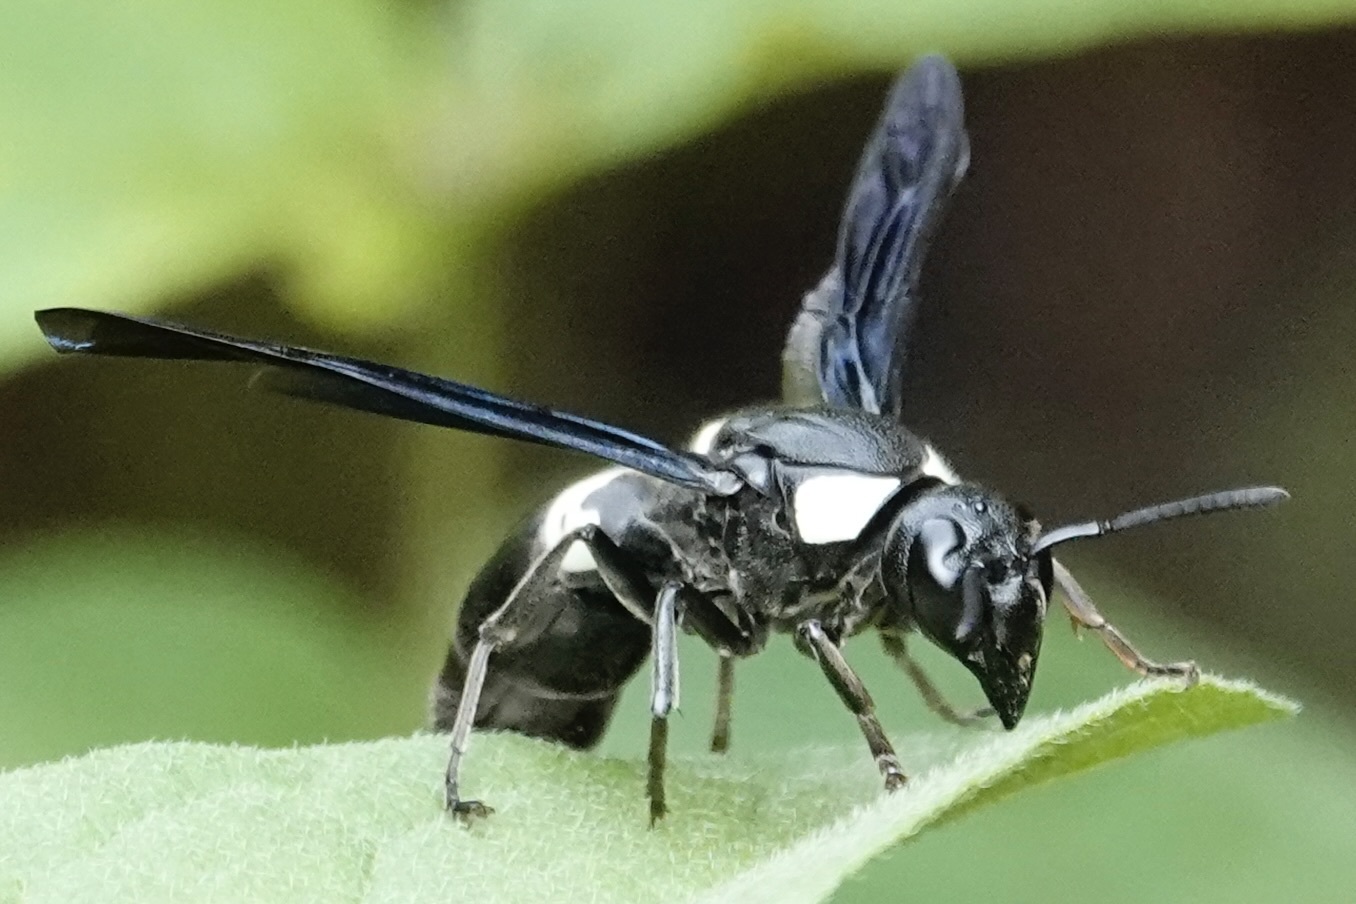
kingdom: Animalia
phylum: Arthropoda
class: Insecta
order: Hymenoptera
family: Eumenidae
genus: Monobia
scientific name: Monobia quadridens
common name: Four-toothed mason wasp
